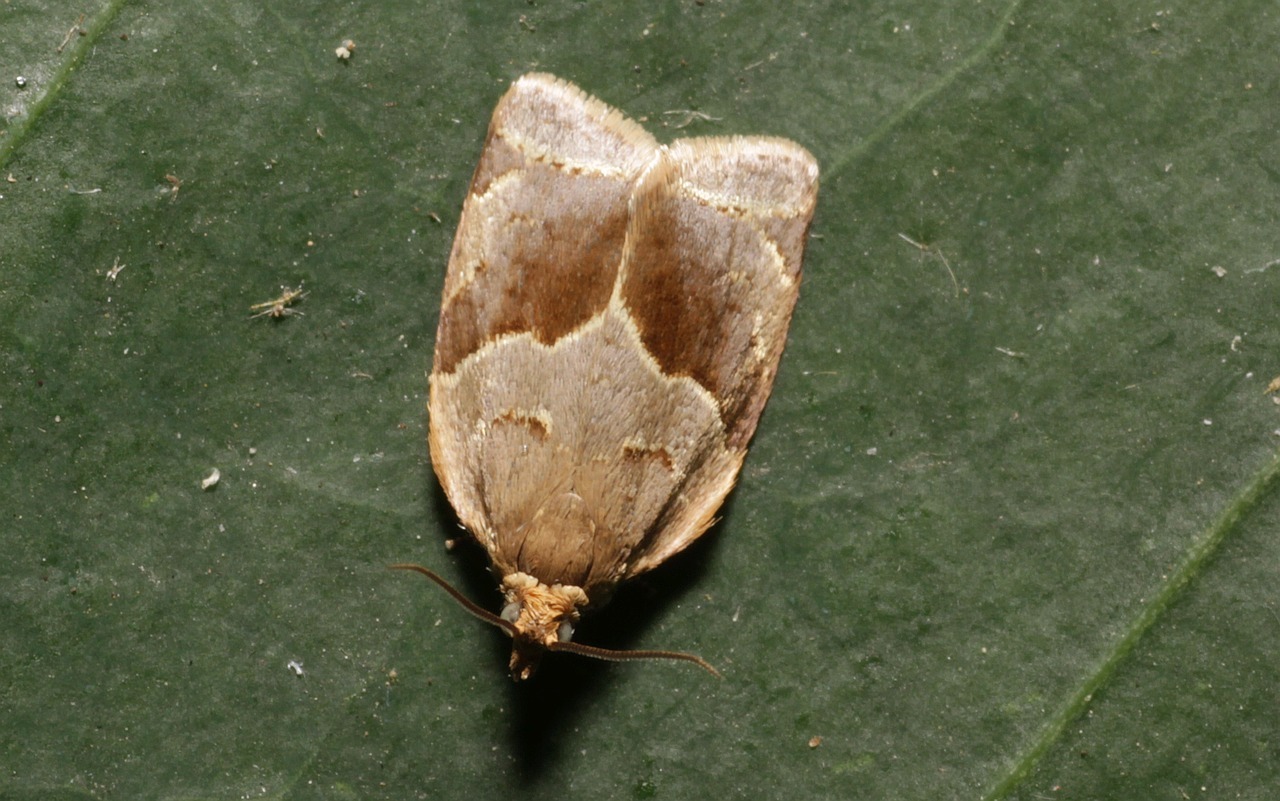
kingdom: Animalia
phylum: Arthropoda
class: Insecta
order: Lepidoptera
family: Tortricidae
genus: Clepsis
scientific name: Clepsis dumicolana
